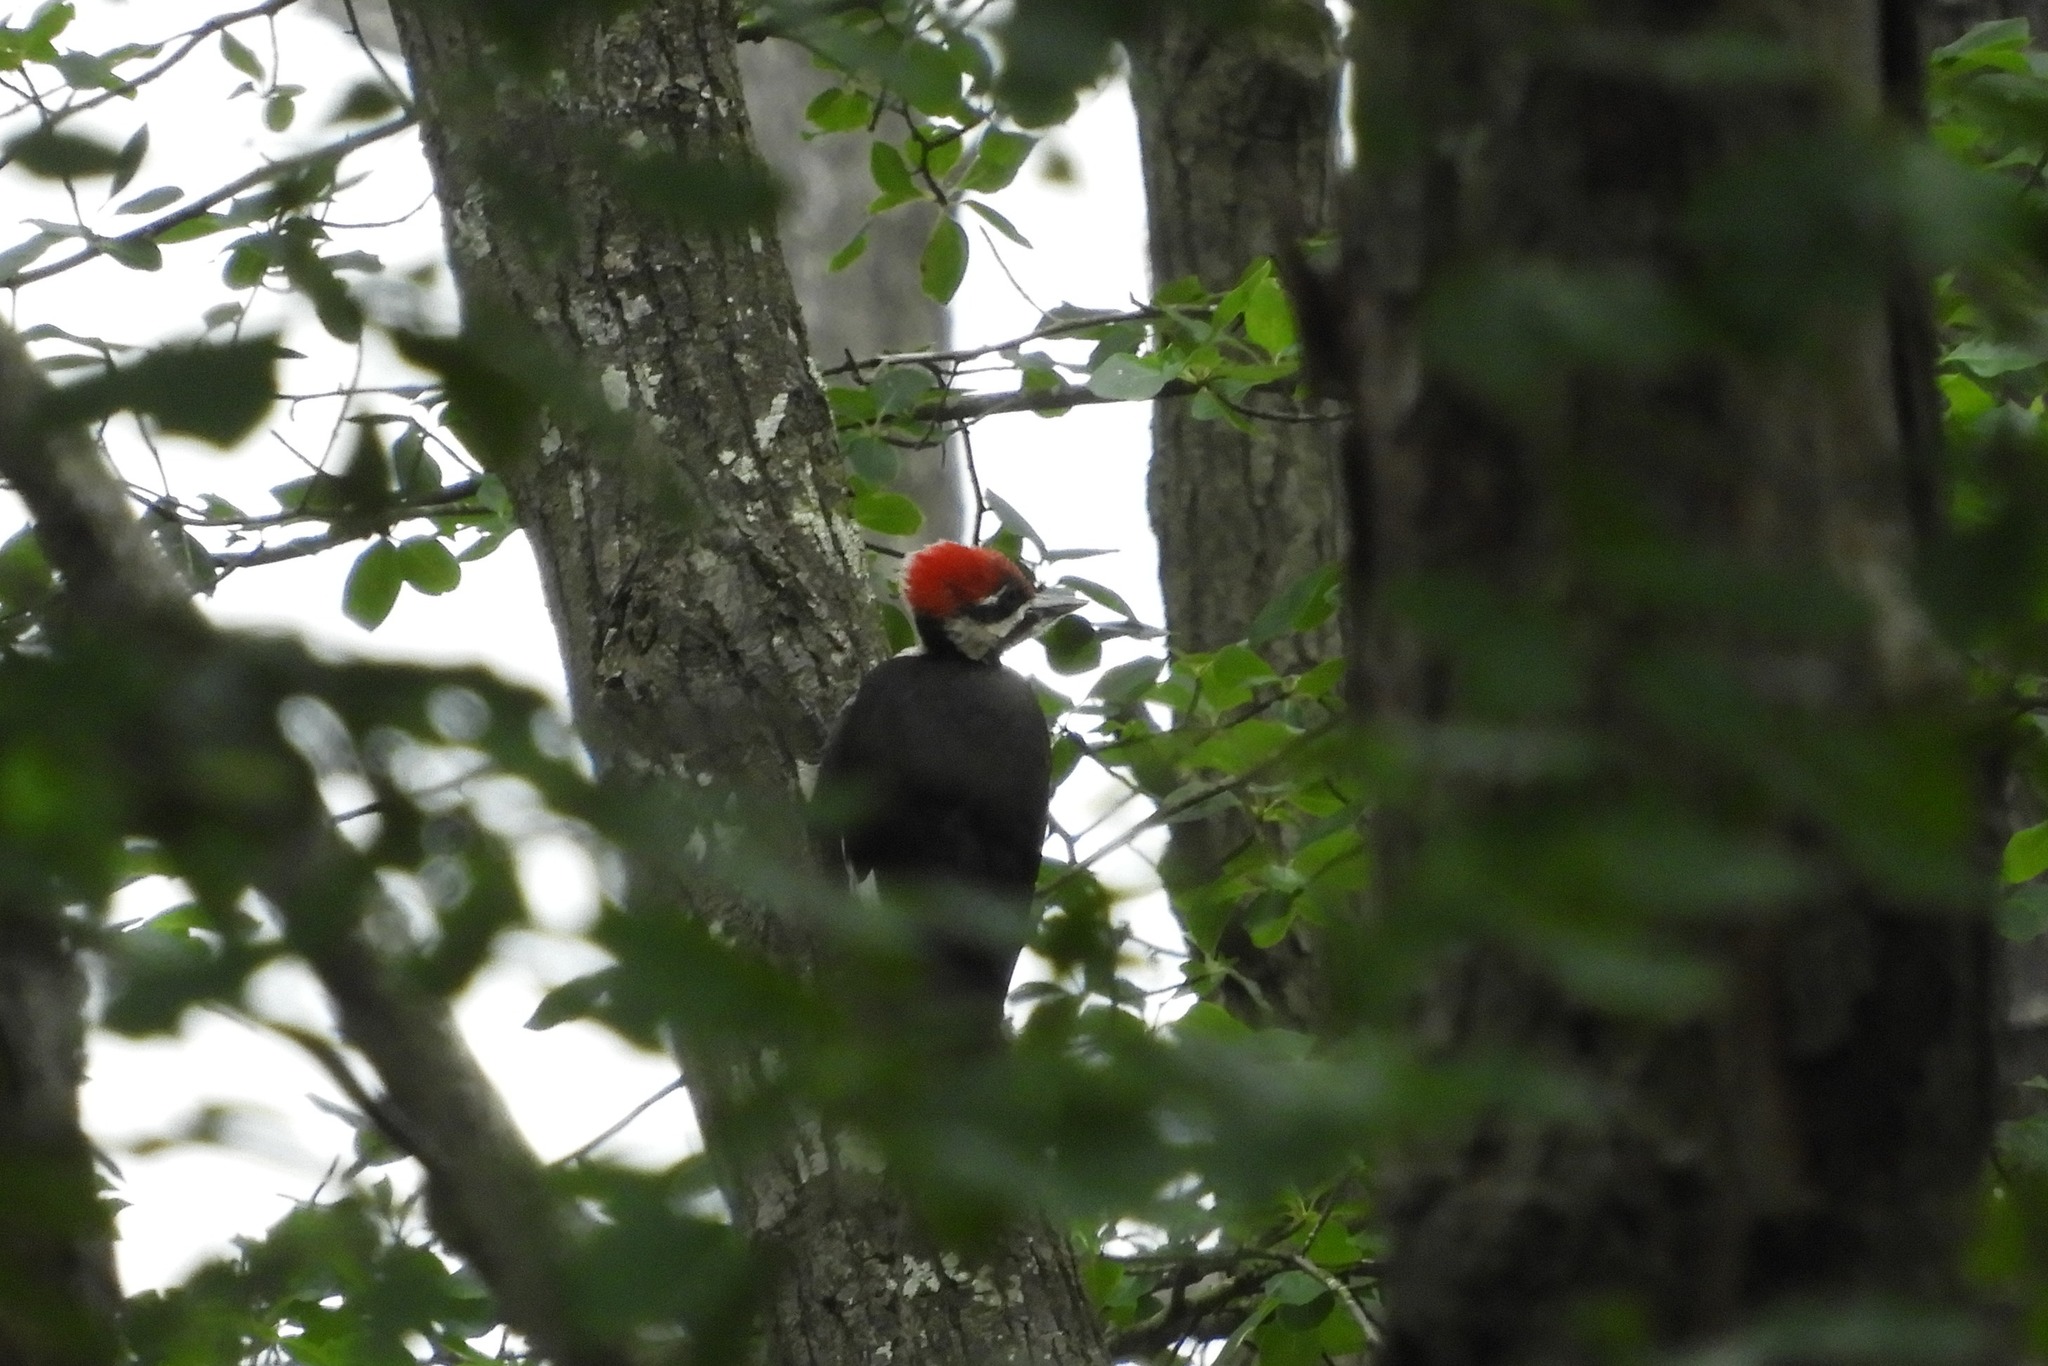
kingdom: Animalia
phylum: Chordata
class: Aves
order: Piciformes
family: Picidae
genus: Dryocopus
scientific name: Dryocopus pileatus
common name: Pileated woodpecker
